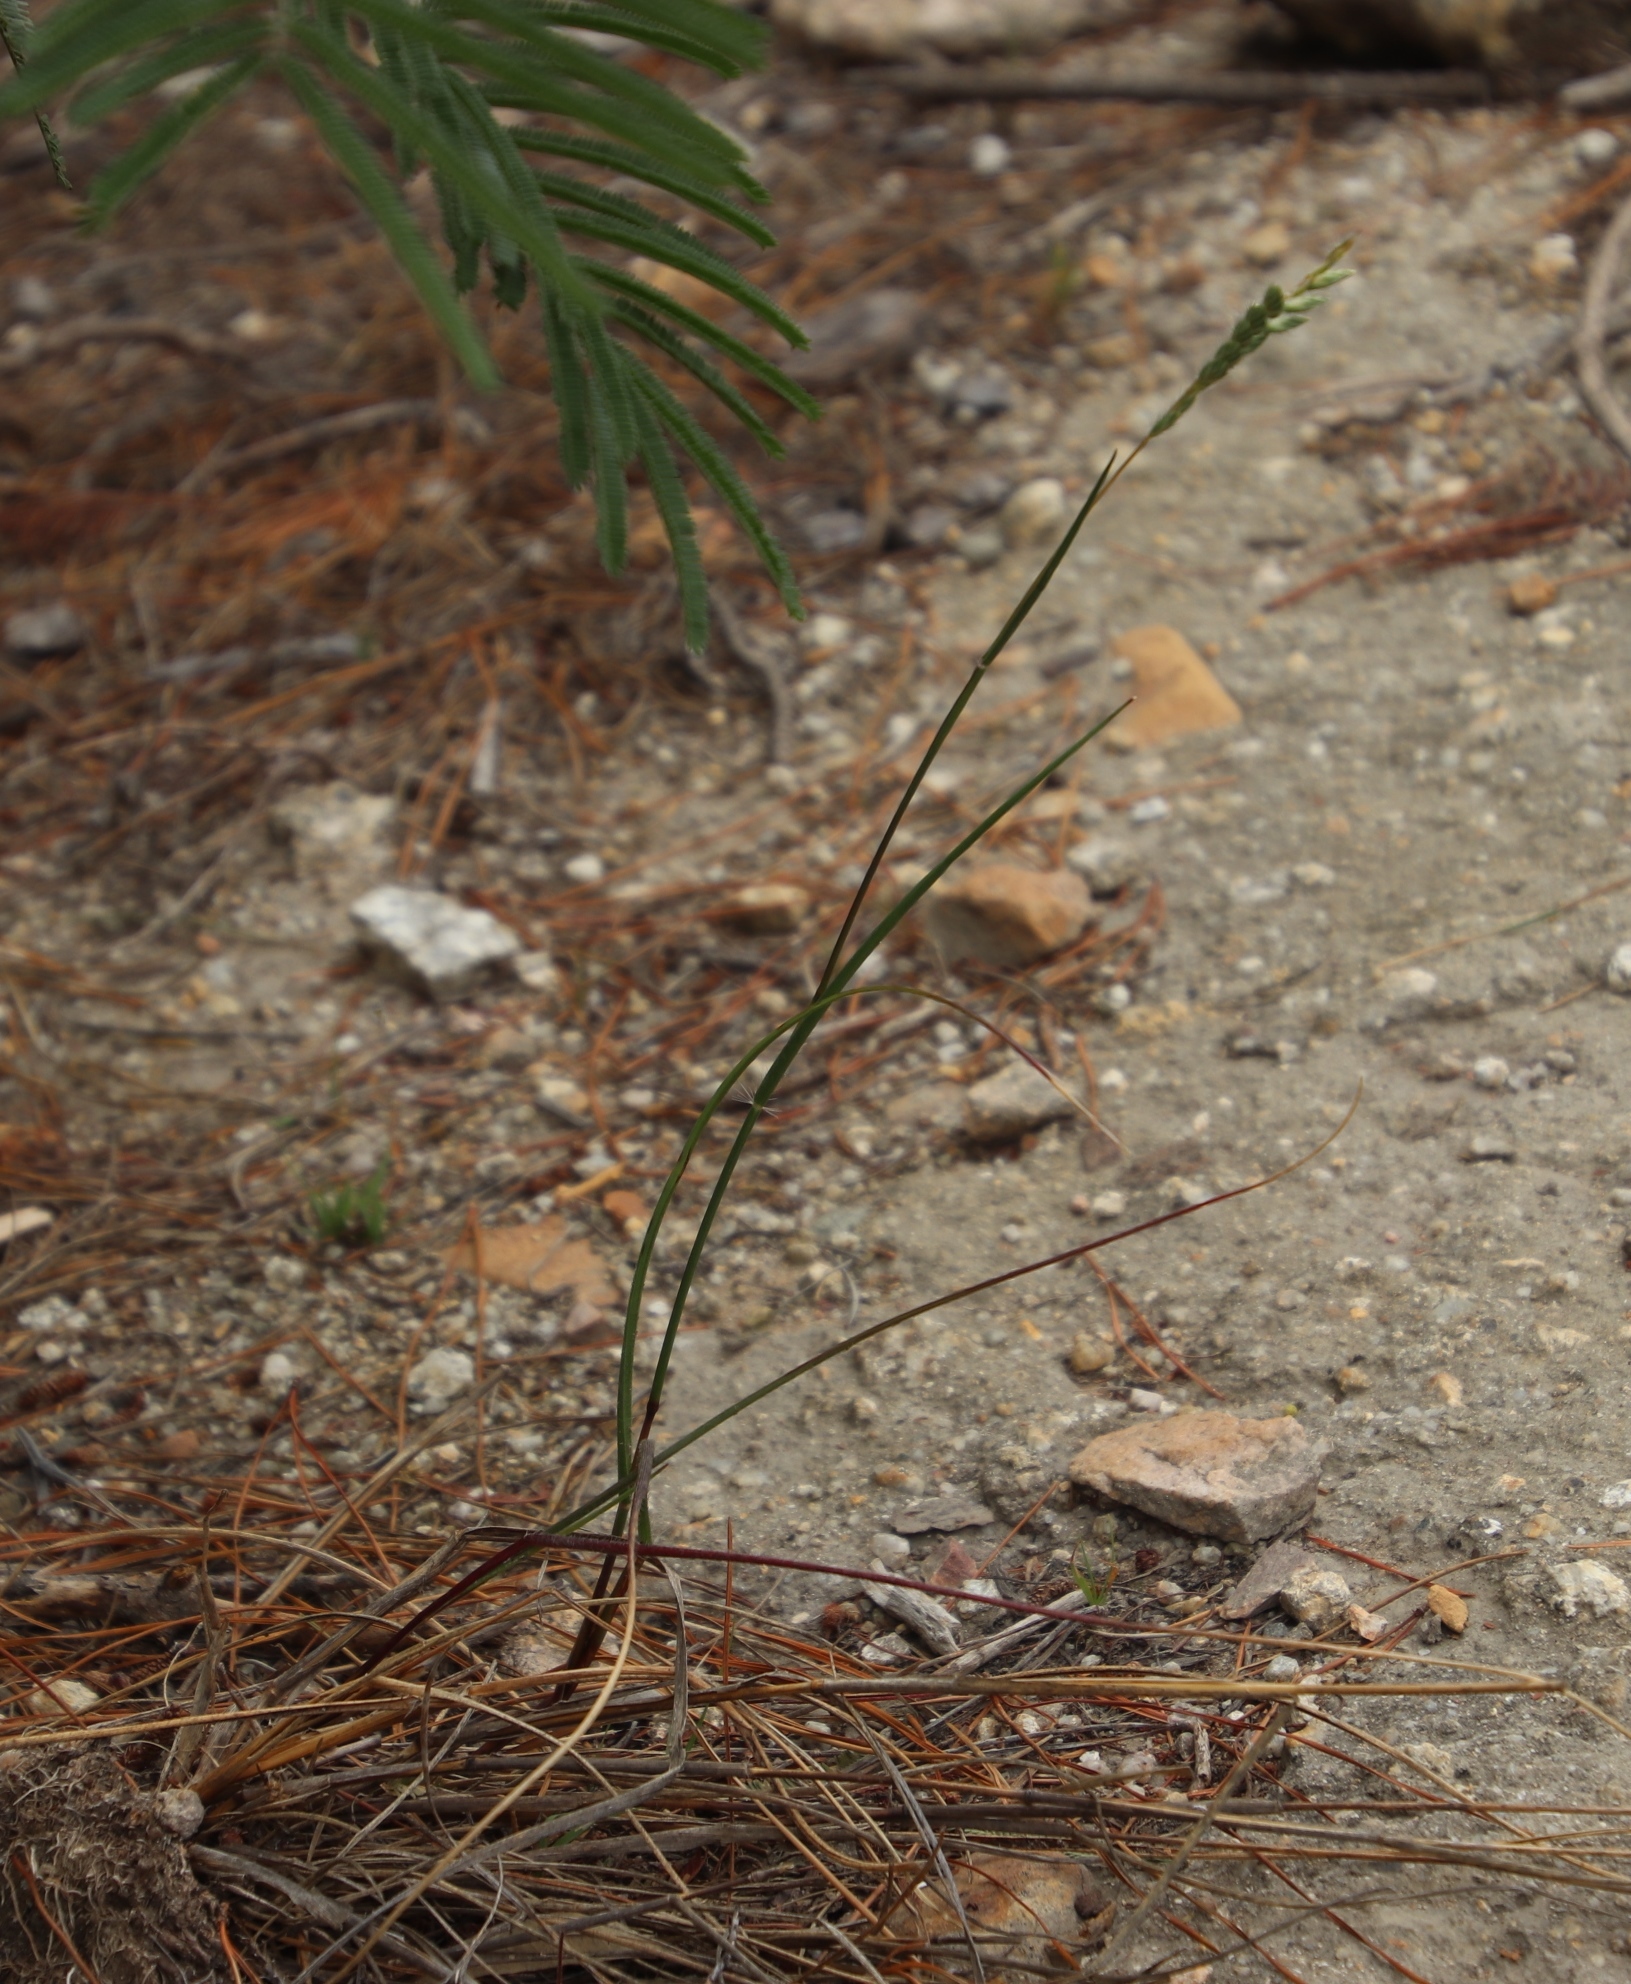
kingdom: Plantae
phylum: Tracheophyta
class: Liliopsida
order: Poales
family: Poaceae
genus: Tribolium
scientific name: Tribolium brachystachyum
